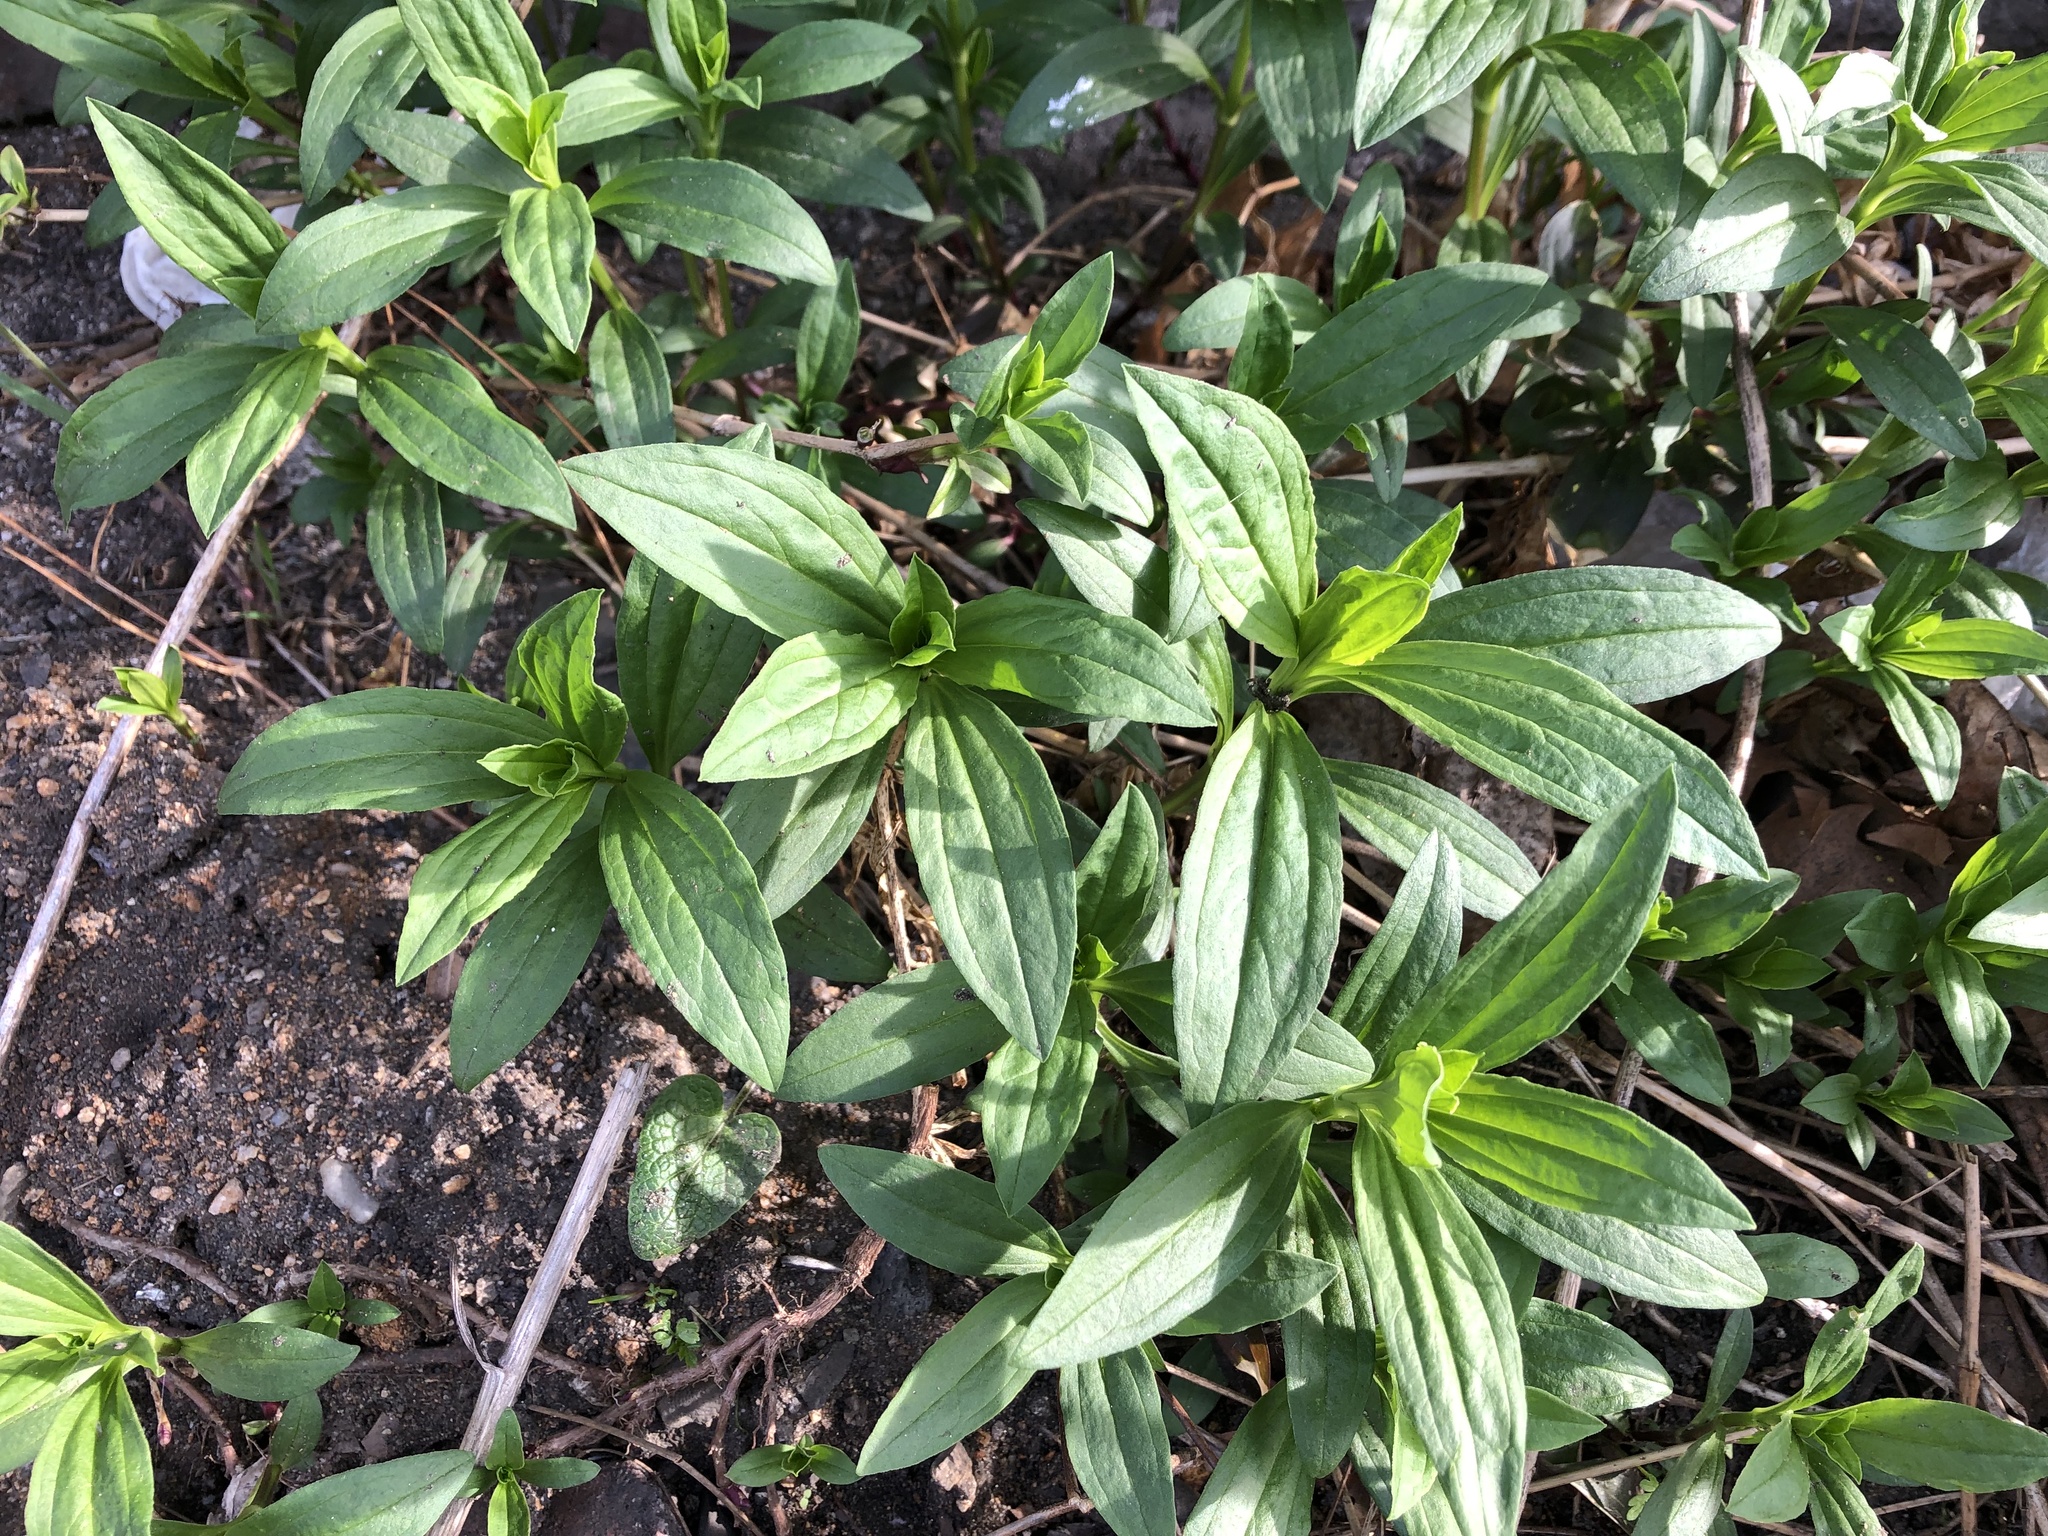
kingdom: Plantae
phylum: Tracheophyta
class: Magnoliopsida
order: Caryophyllales
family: Caryophyllaceae
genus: Saponaria
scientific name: Saponaria officinalis
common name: Soapwort
